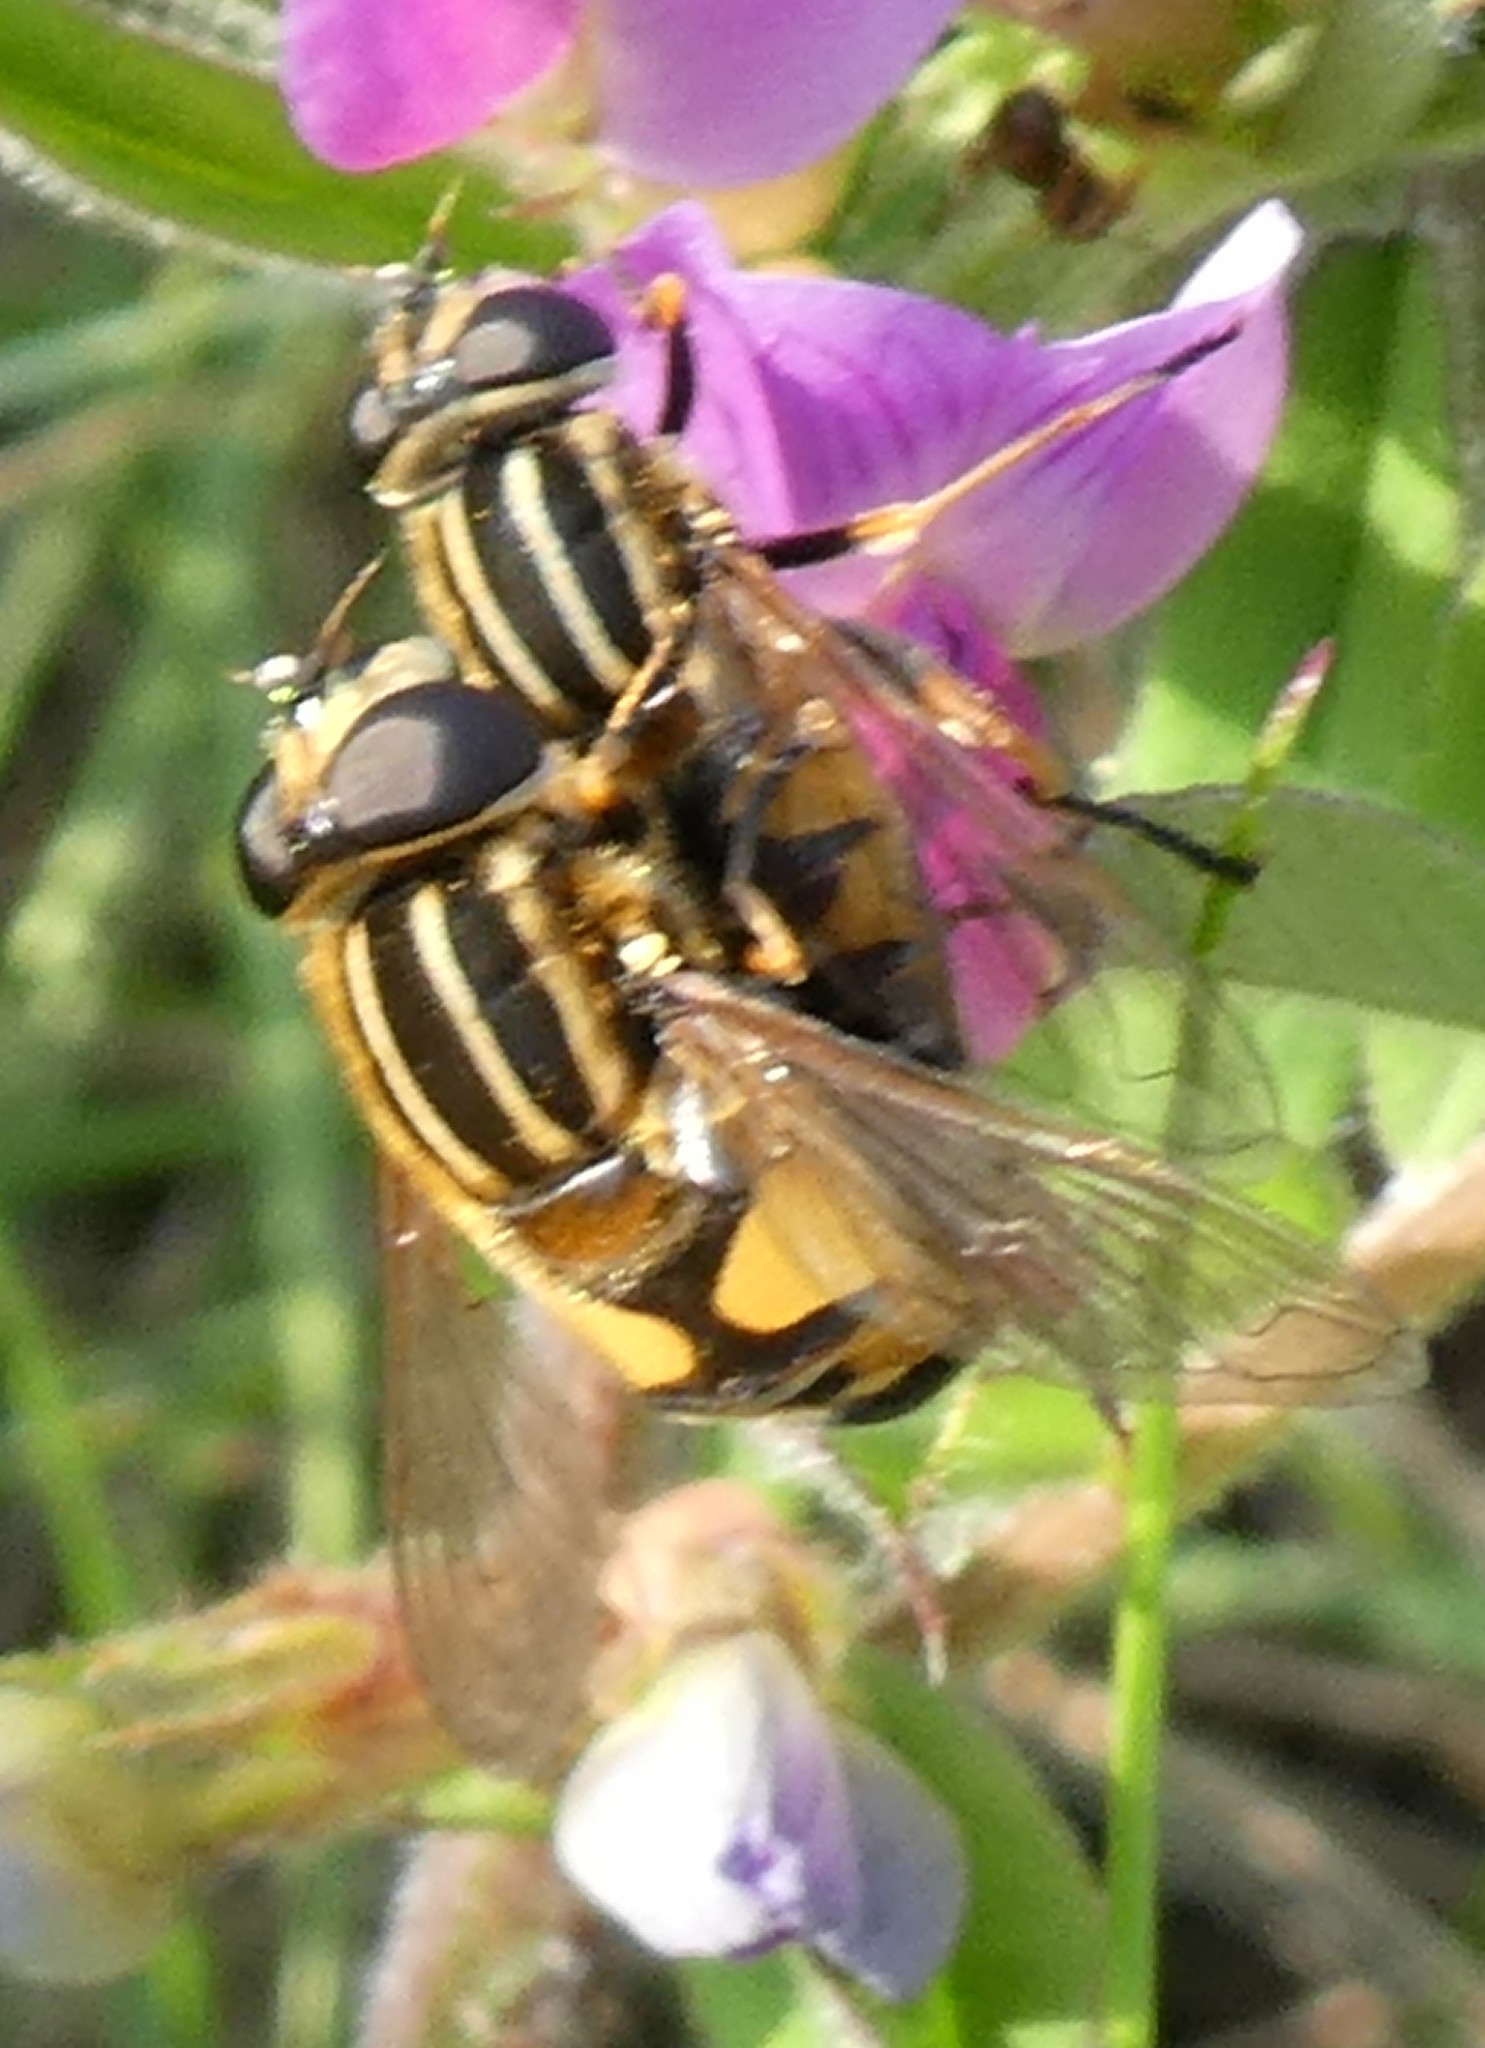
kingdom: Animalia
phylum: Arthropoda
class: Insecta
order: Diptera
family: Syrphidae
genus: Helophilus
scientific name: Helophilus pendulus
